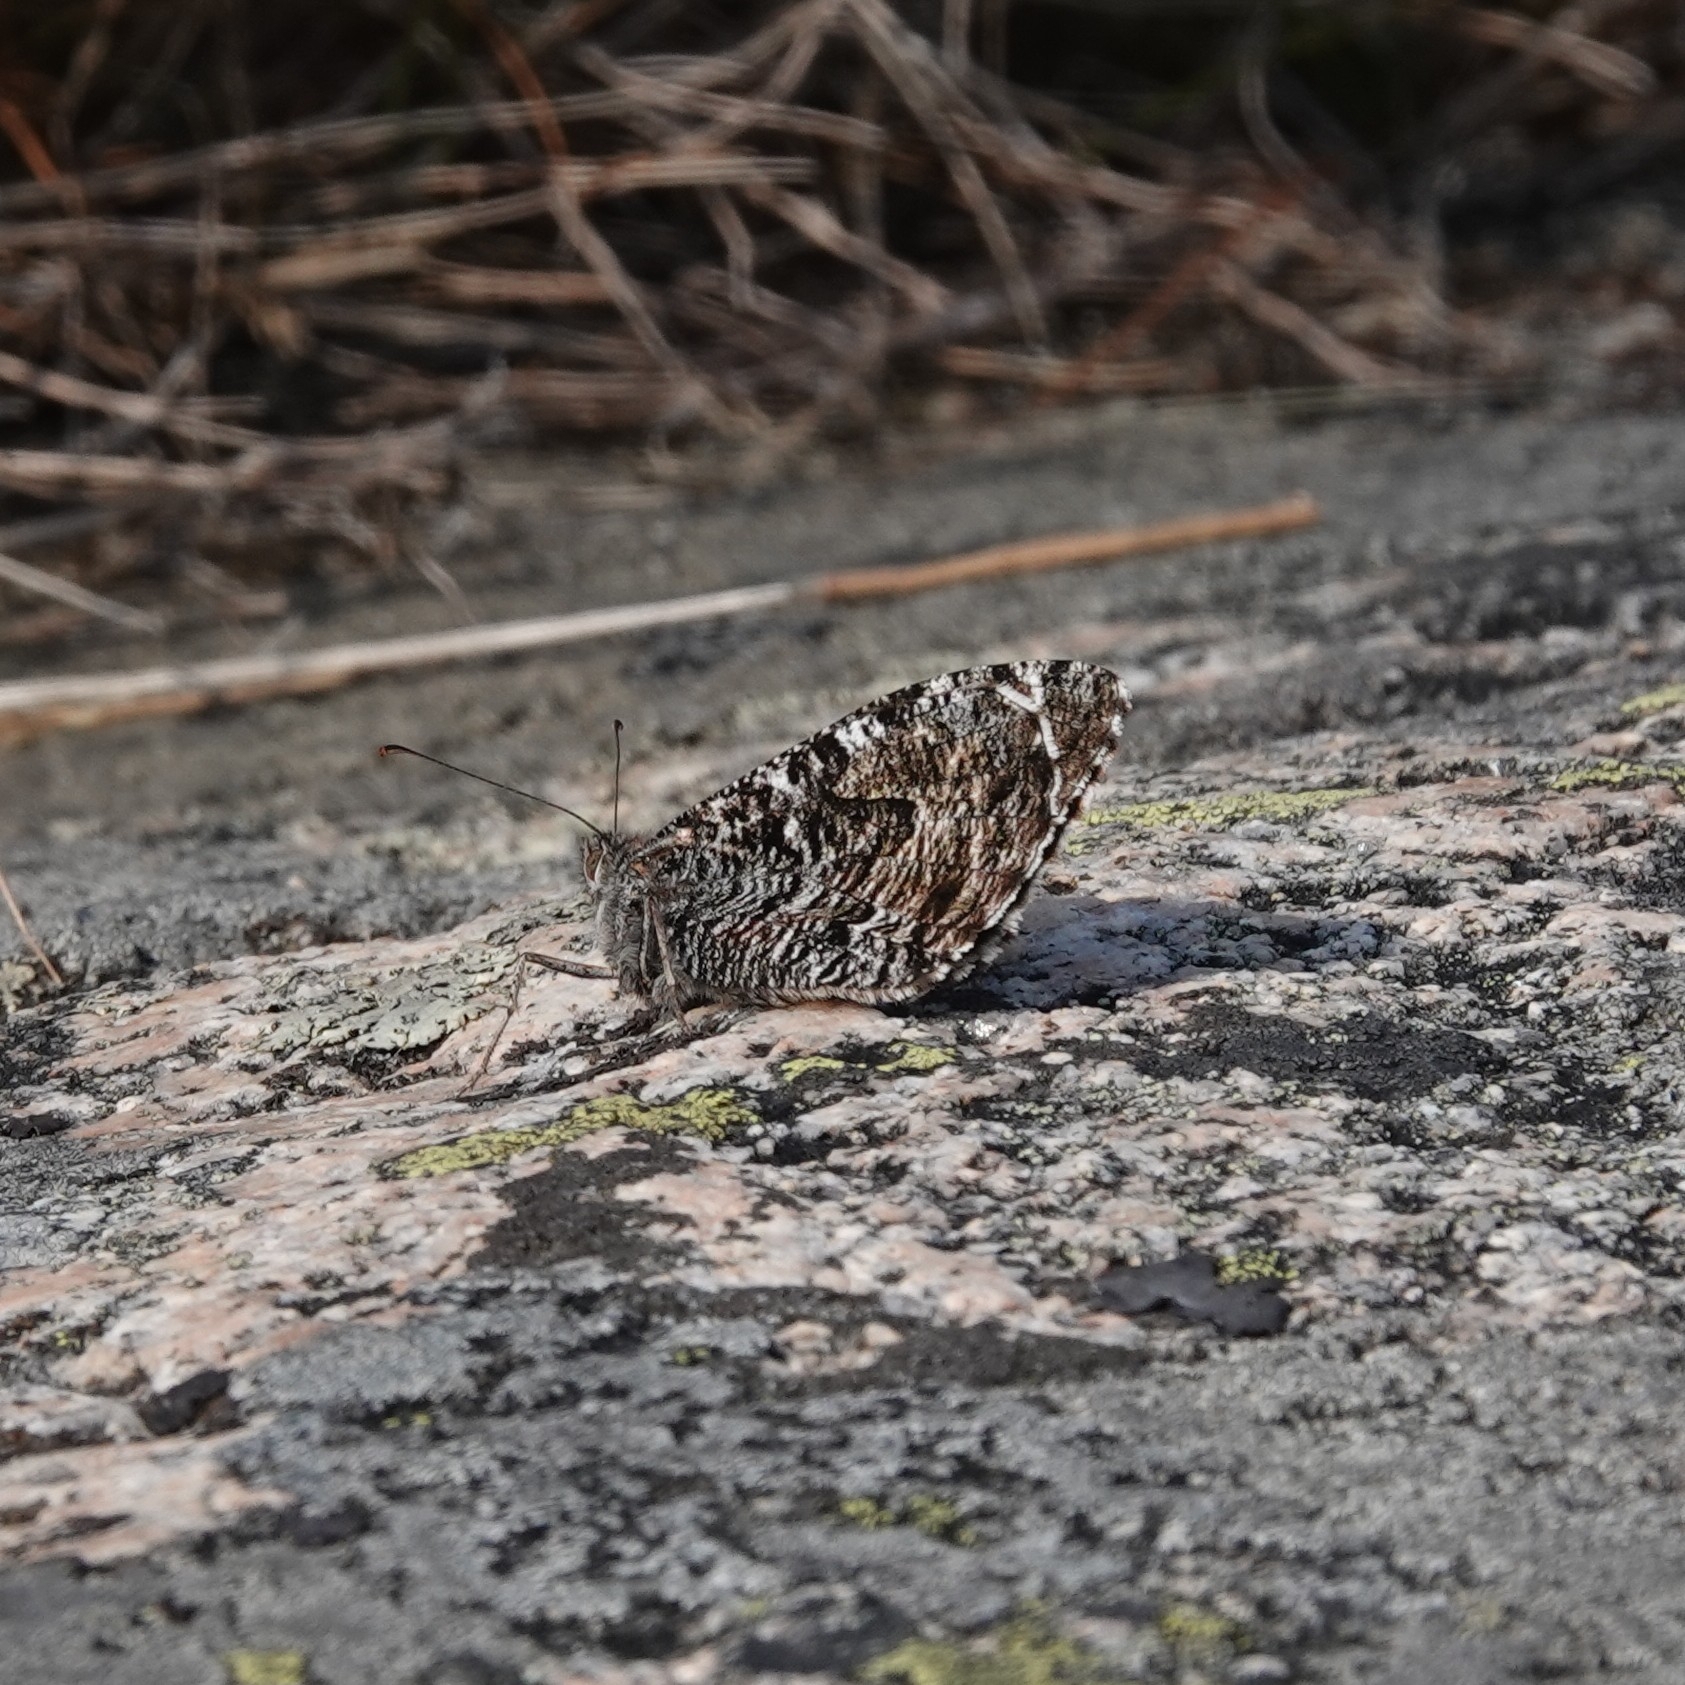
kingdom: Animalia
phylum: Arthropoda
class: Insecta
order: Lepidoptera
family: Nymphalidae
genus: Hipparchia
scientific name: Hipparchia semele
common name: Grayling
